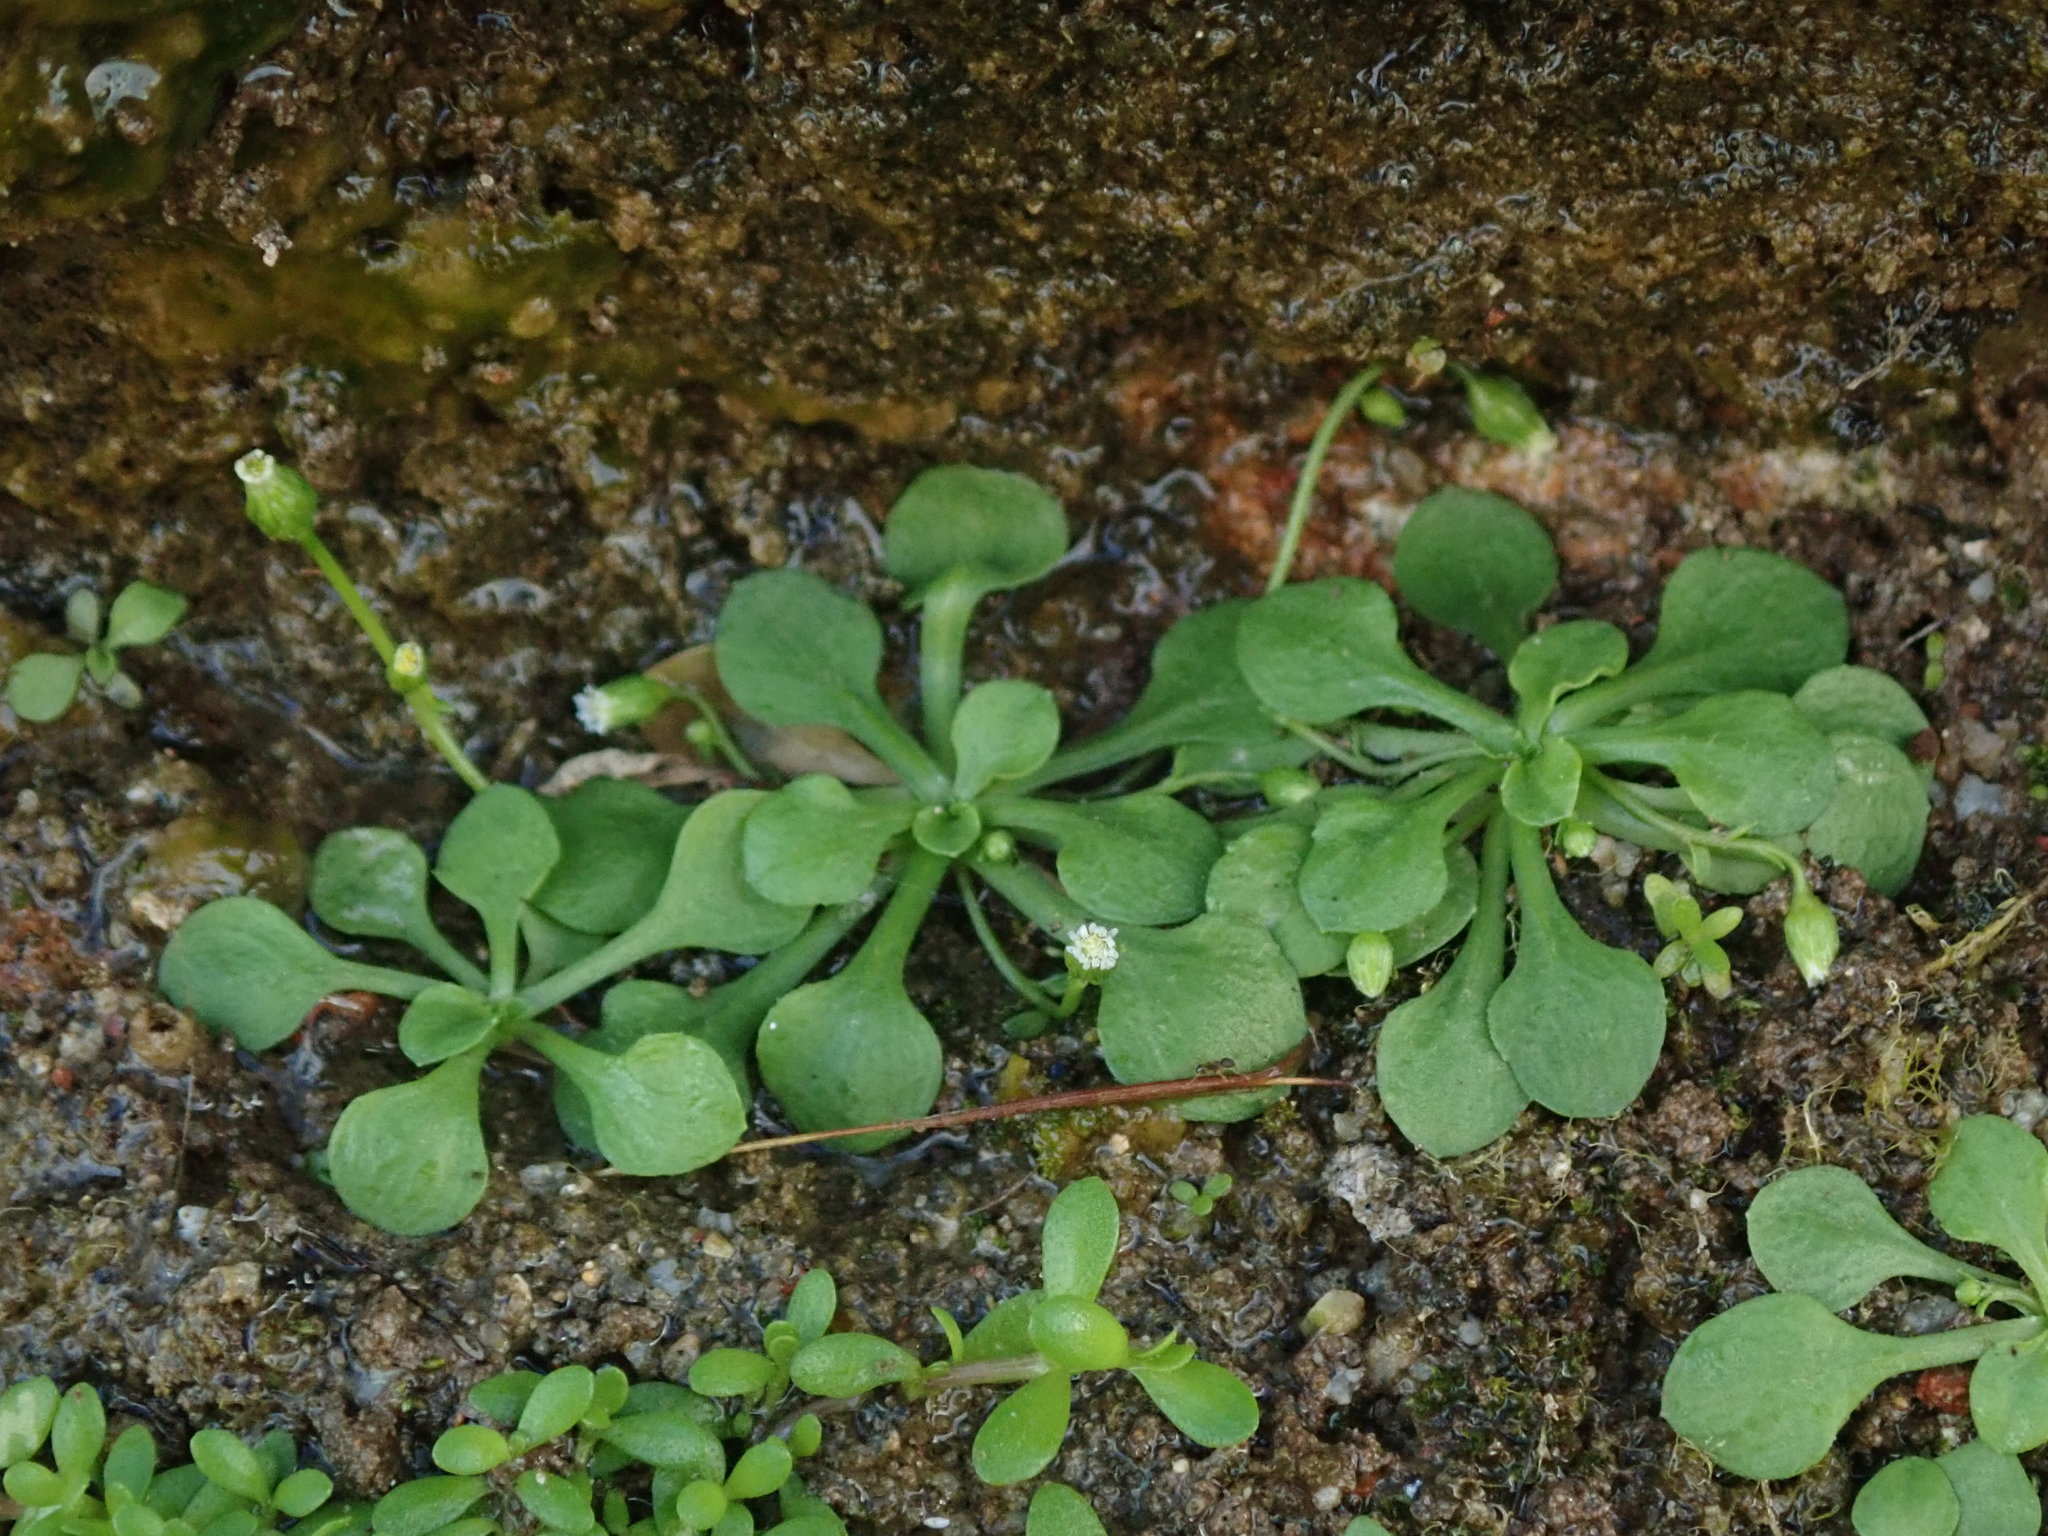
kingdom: Plantae
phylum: Tracheophyta
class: Magnoliopsida
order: Asterales
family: Asteraceae
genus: Erigeron
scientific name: Erigeron bellioides
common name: Bellorita
